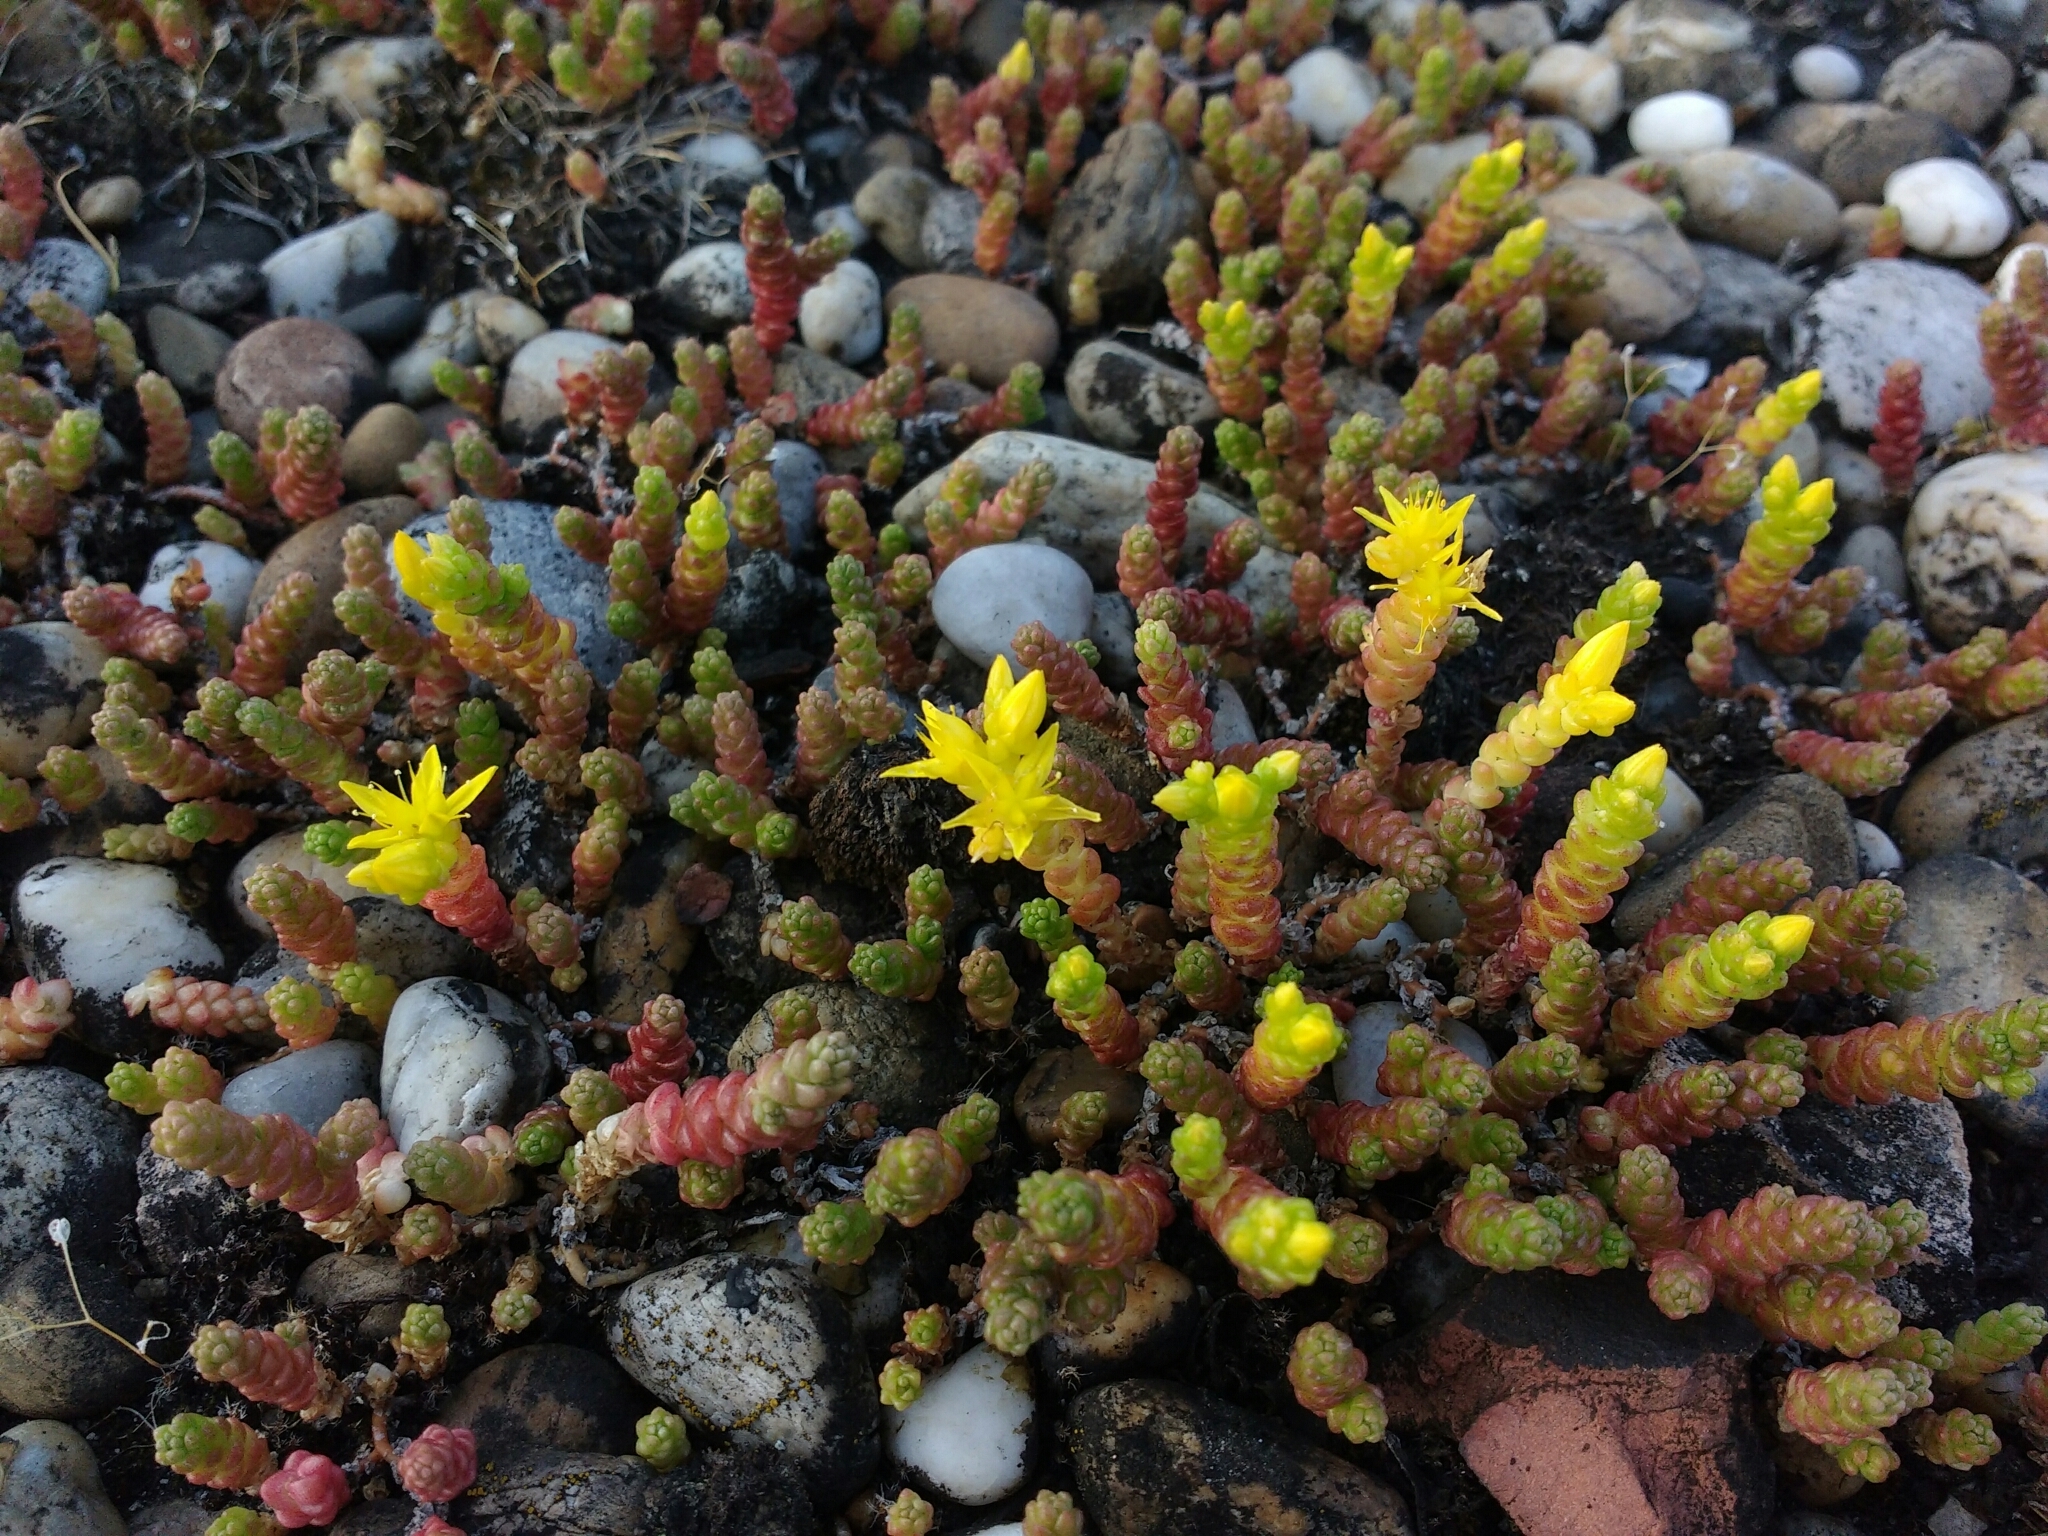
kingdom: Plantae
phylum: Tracheophyta
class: Magnoliopsida
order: Saxifragales
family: Crassulaceae
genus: Sedum
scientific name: Sedum acre
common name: Biting stonecrop
